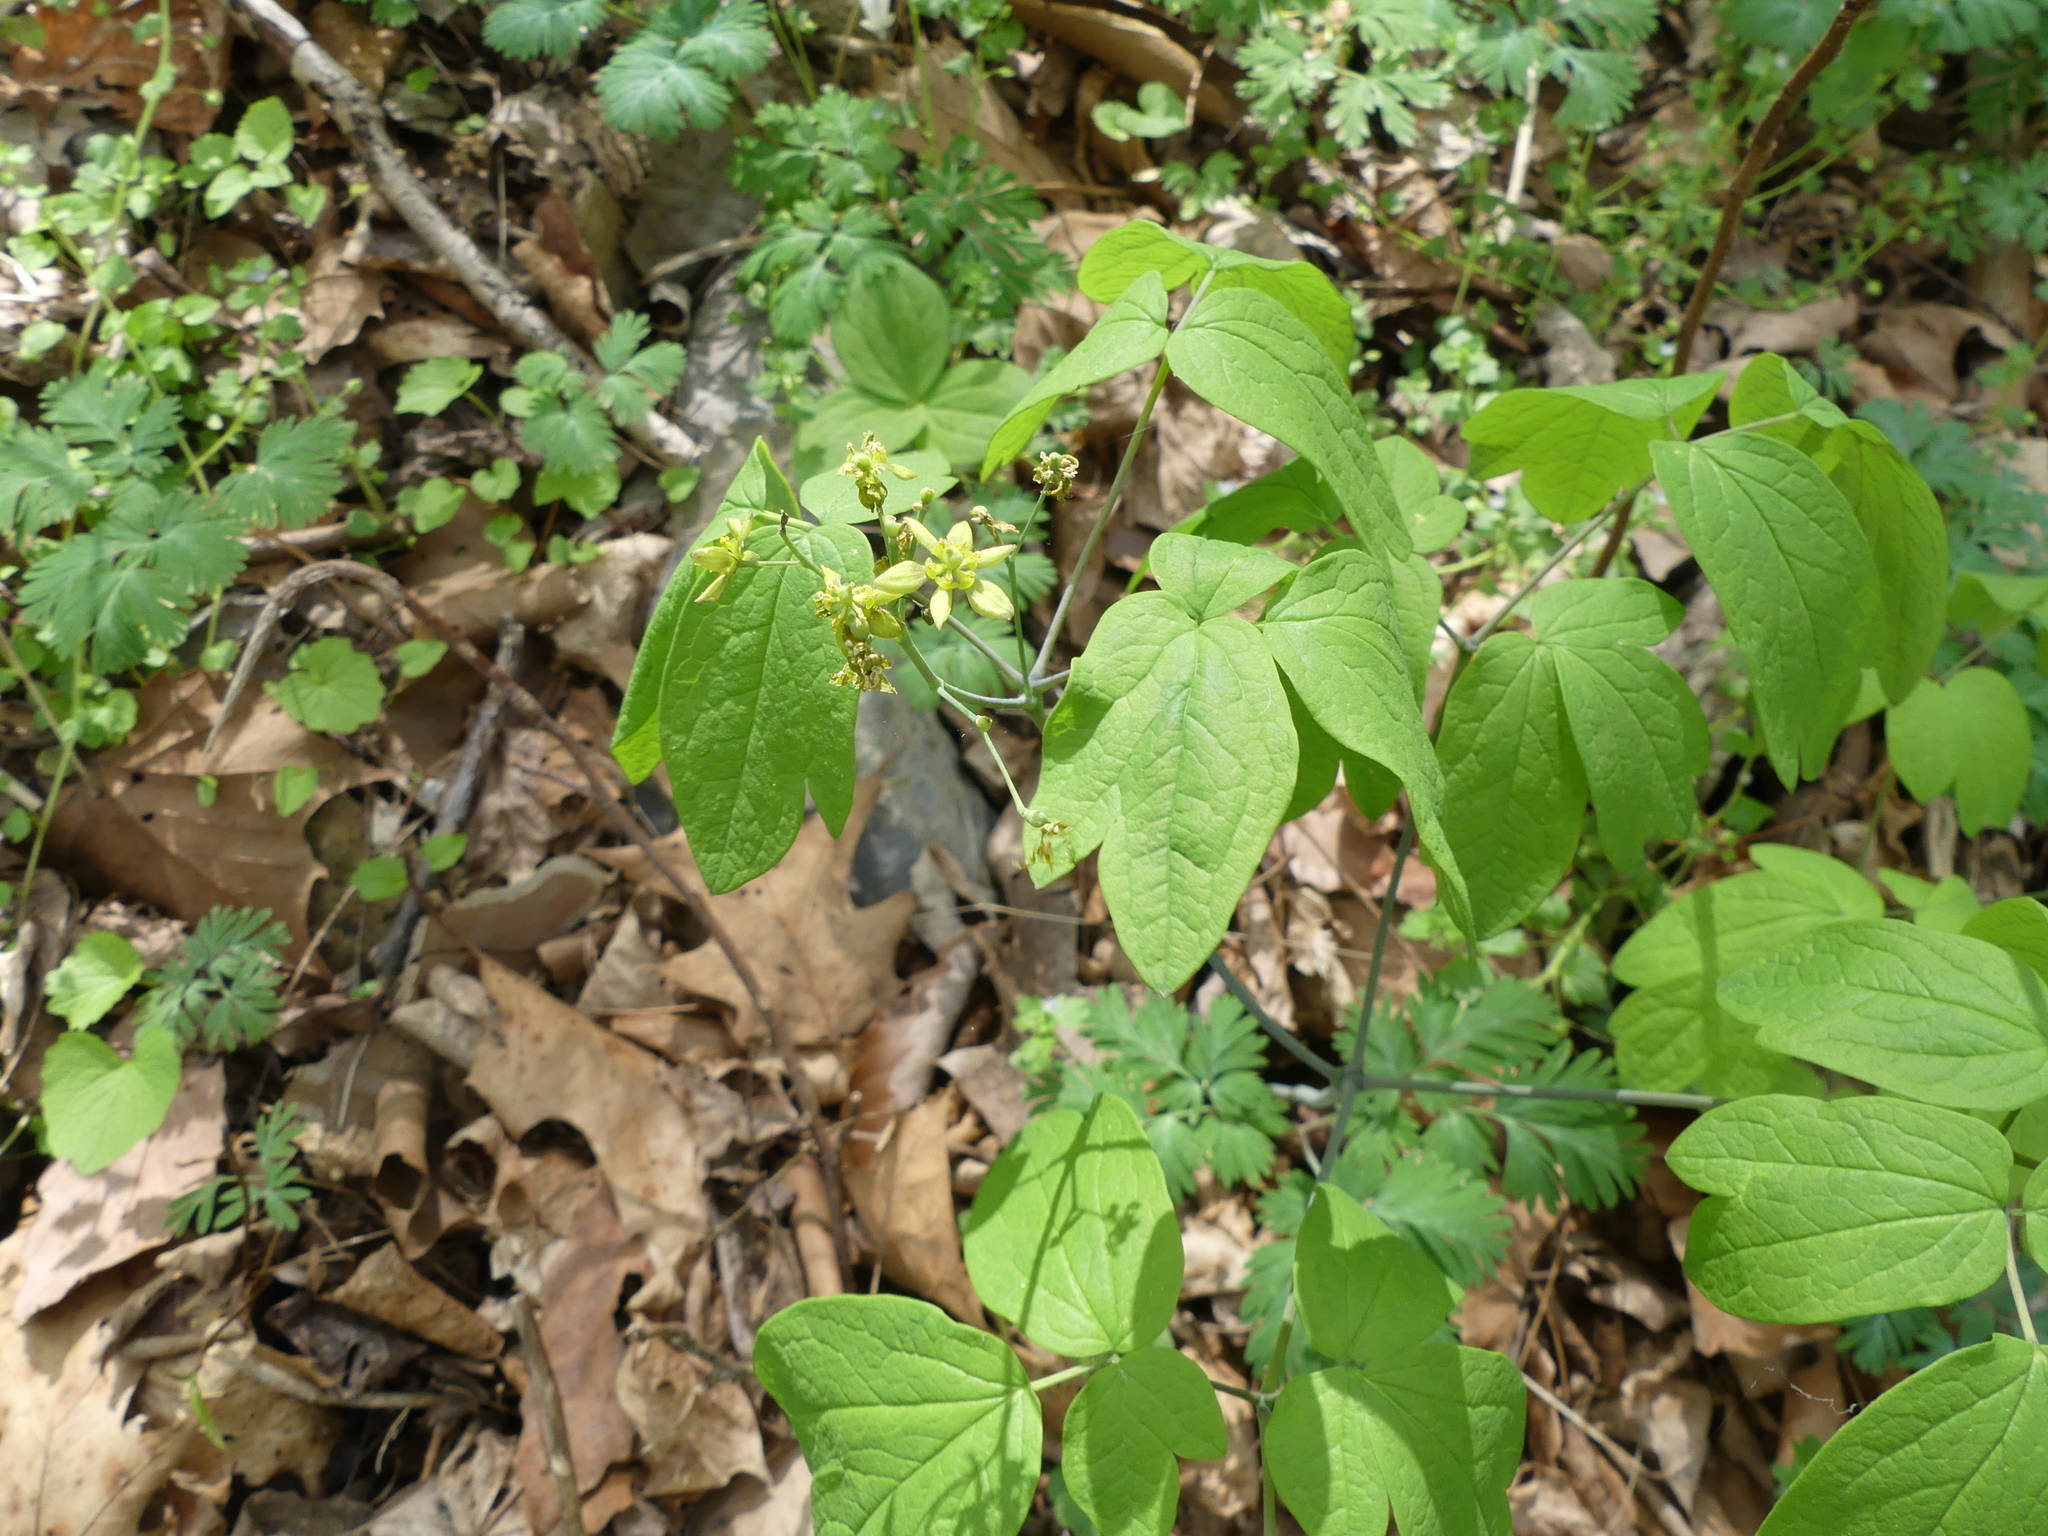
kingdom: Plantae
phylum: Tracheophyta
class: Magnoliopsida
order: Ranunculales
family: Berberidaceae
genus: Caulophyllum
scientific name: Caulophyllum thalictroides
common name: Blue cohosh
